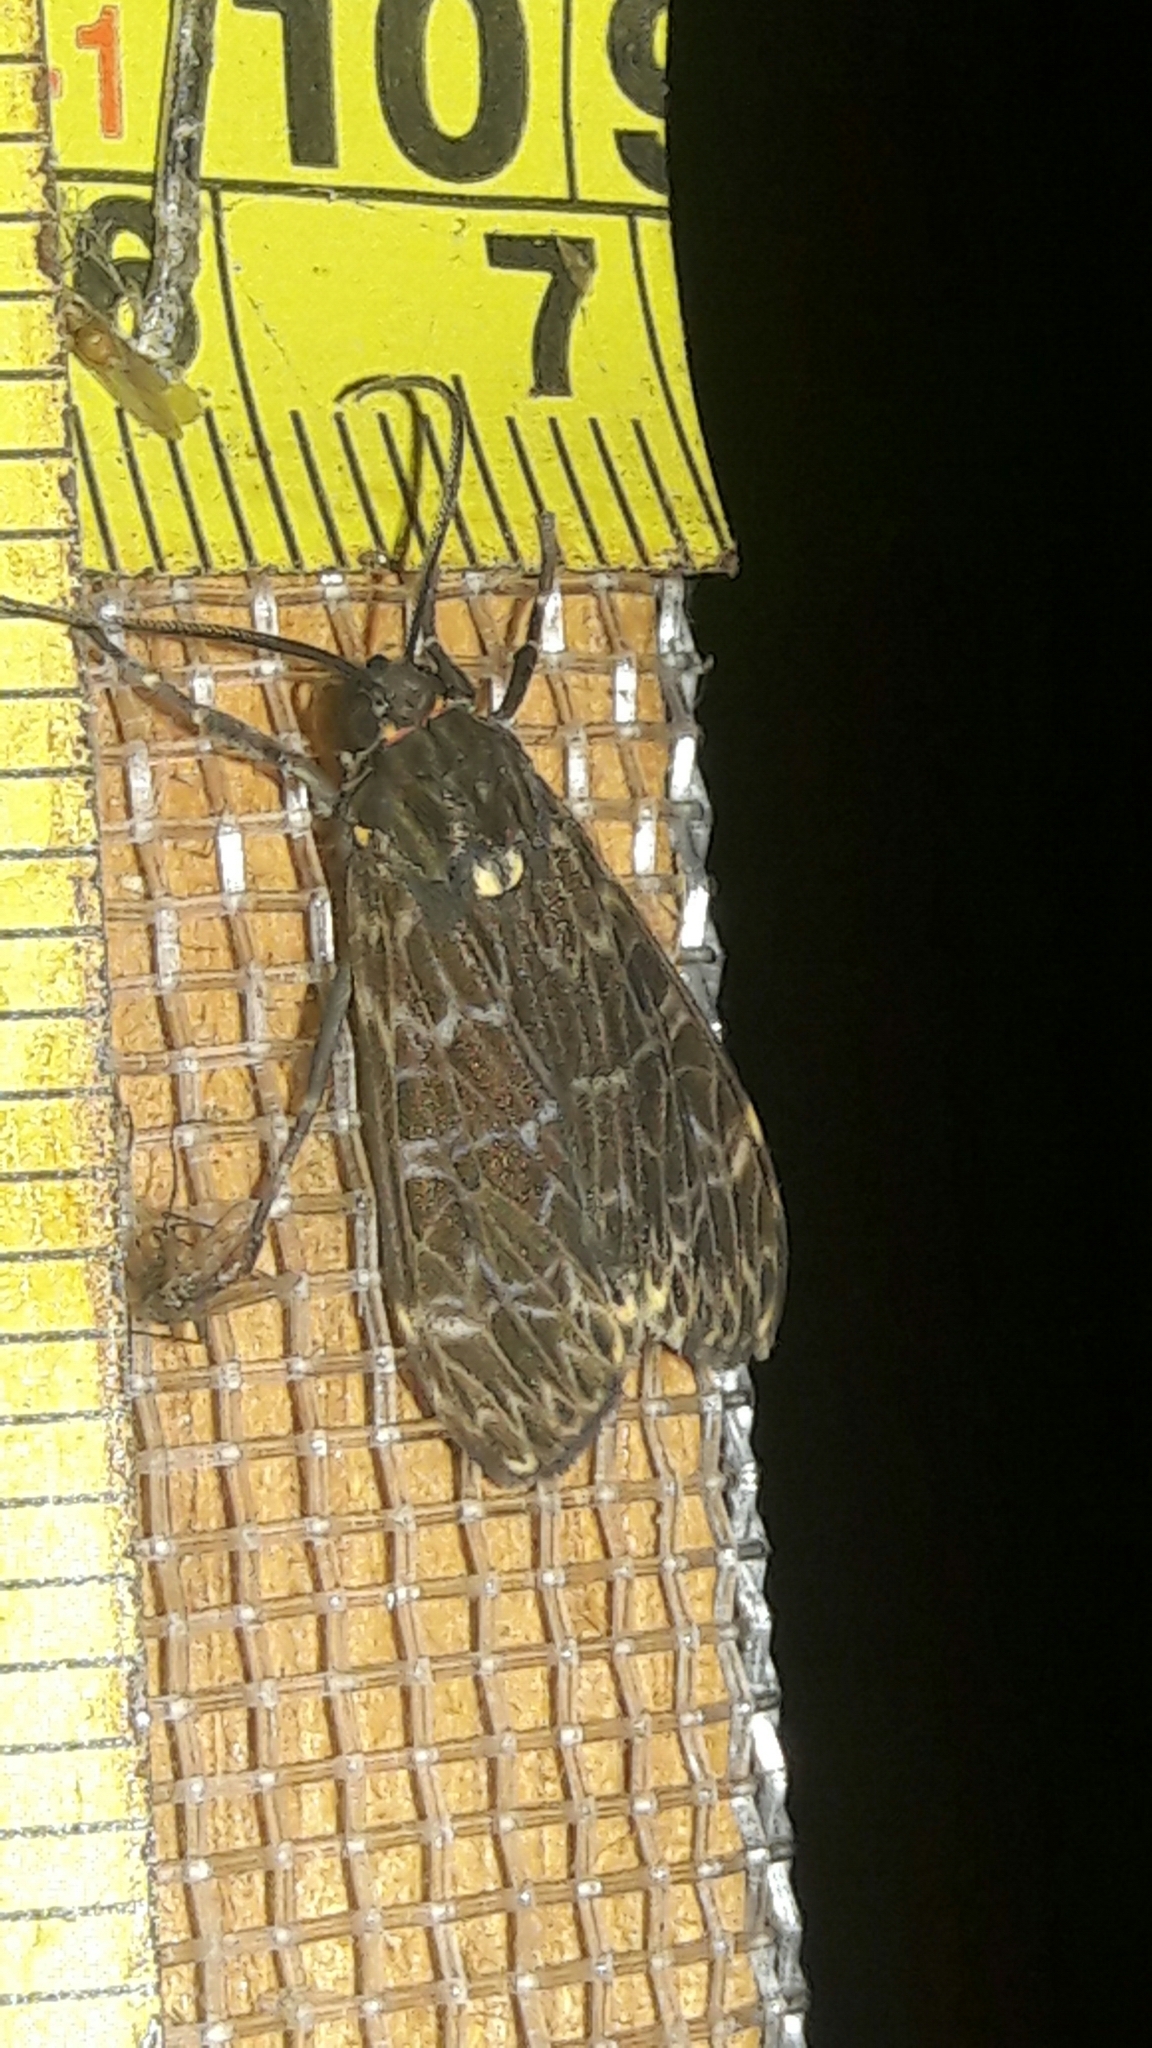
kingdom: Animalia
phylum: Arthropoda
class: Insecta
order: Lepidoptera
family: Erebidae
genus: Eucereon
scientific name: Eucereon sylvius
